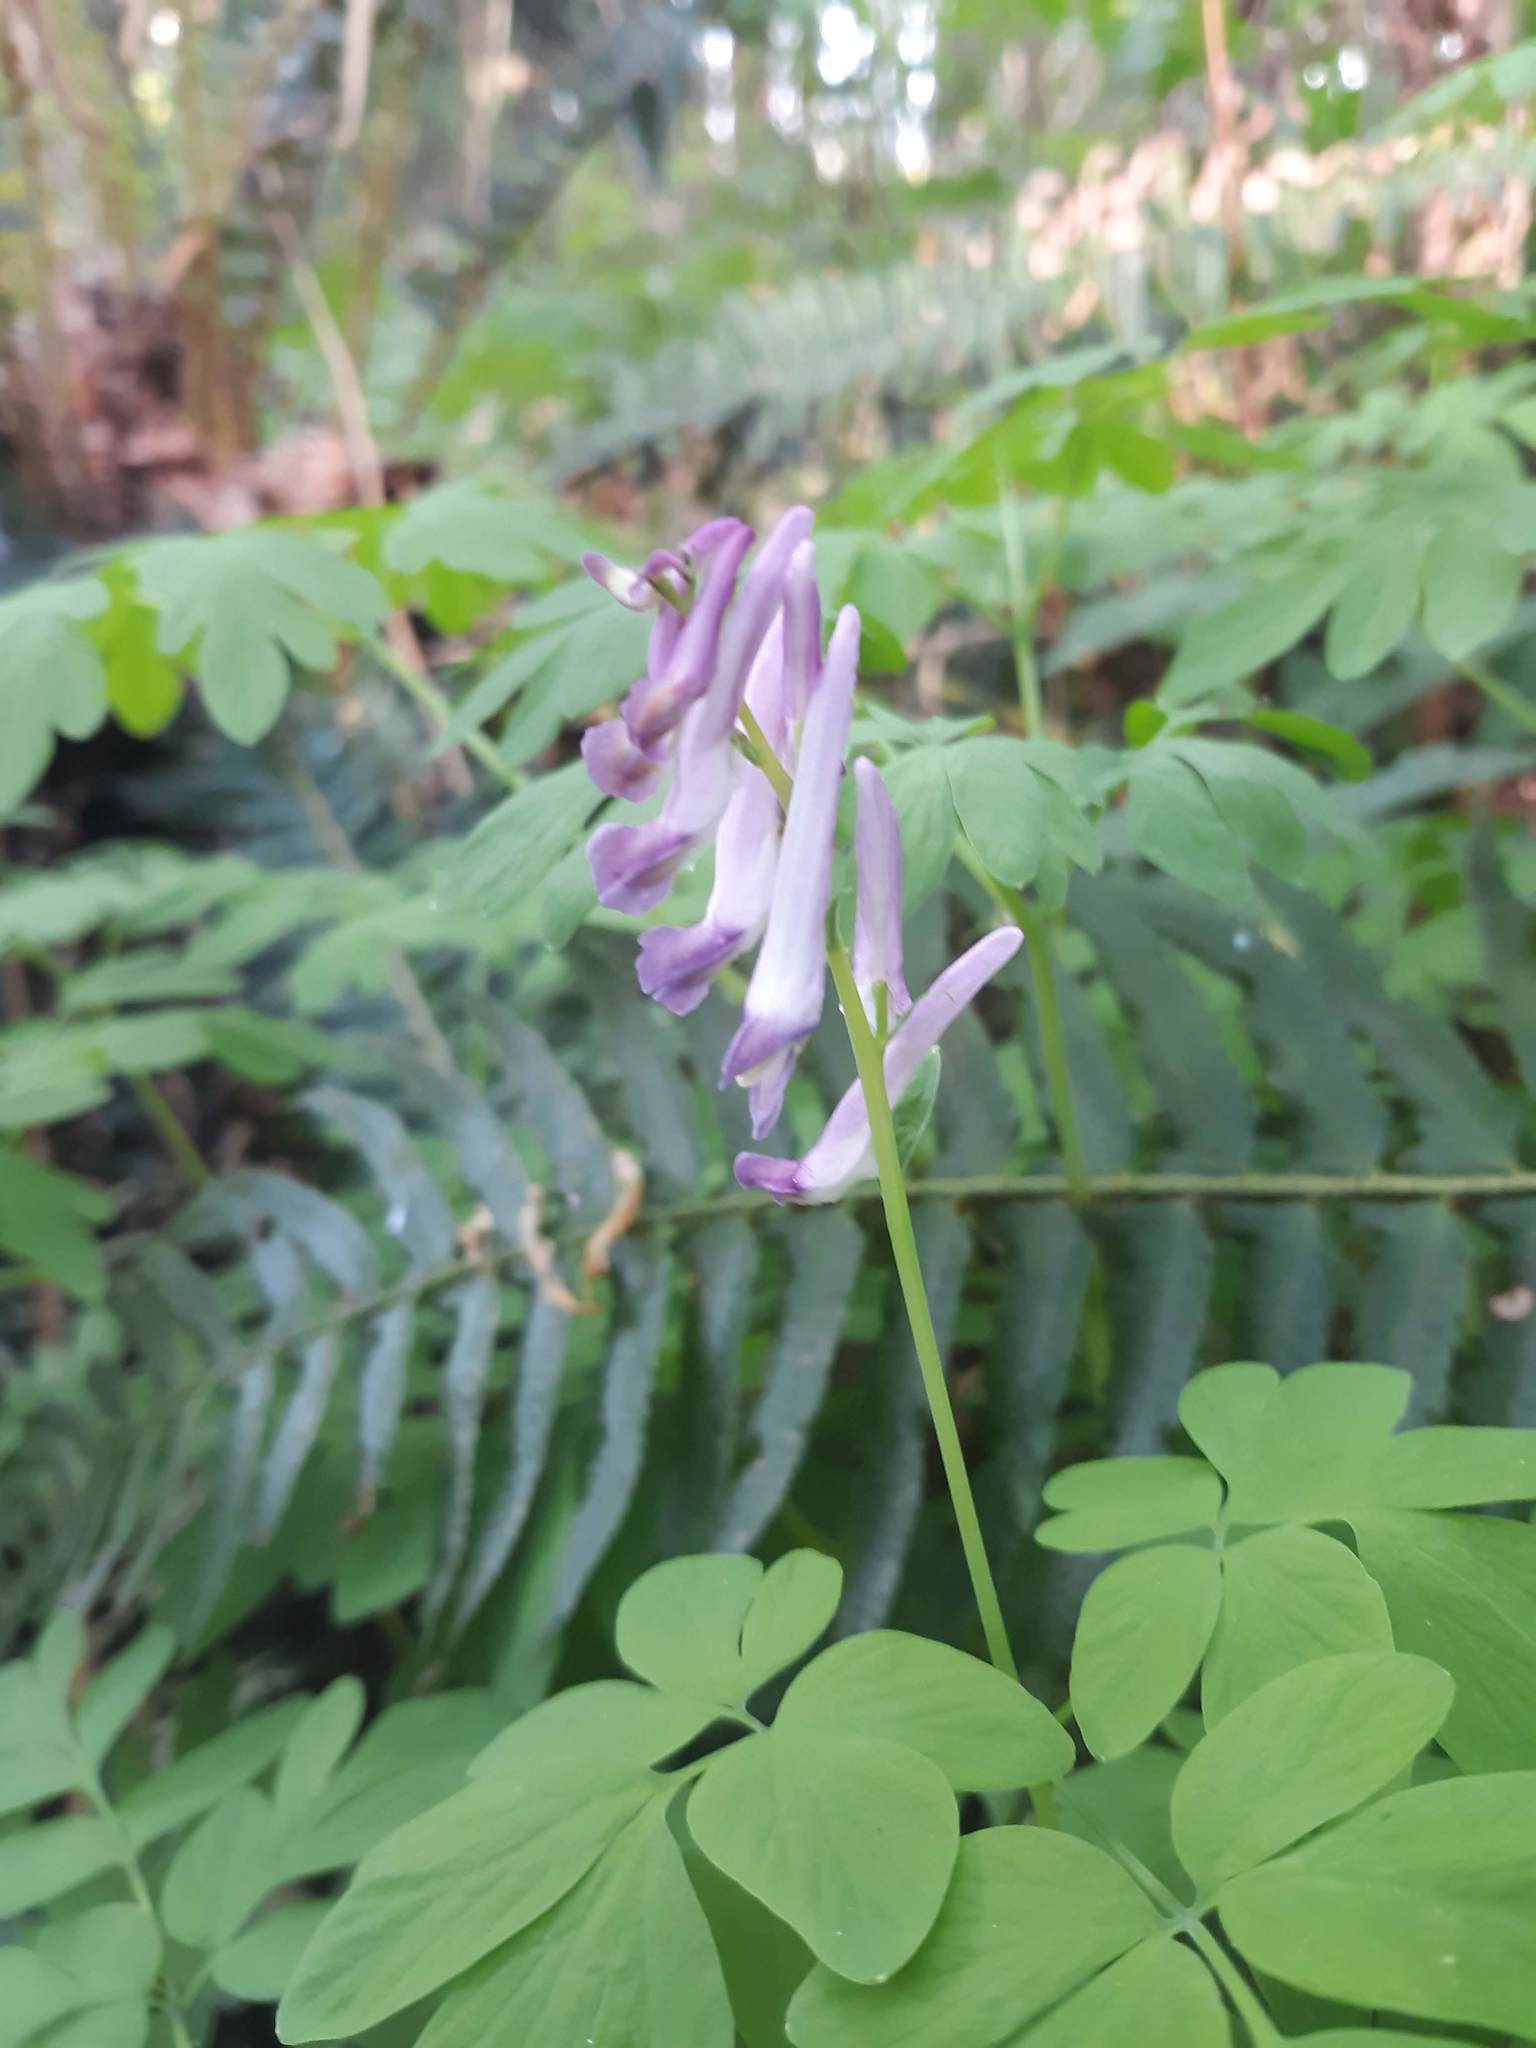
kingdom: Plantae
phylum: Tracheophyta
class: Magnoliopsida
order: Ranunculales
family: Papaveraceae
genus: Corydalis
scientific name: Corydalis scouleri
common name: Scouler's corydalis
